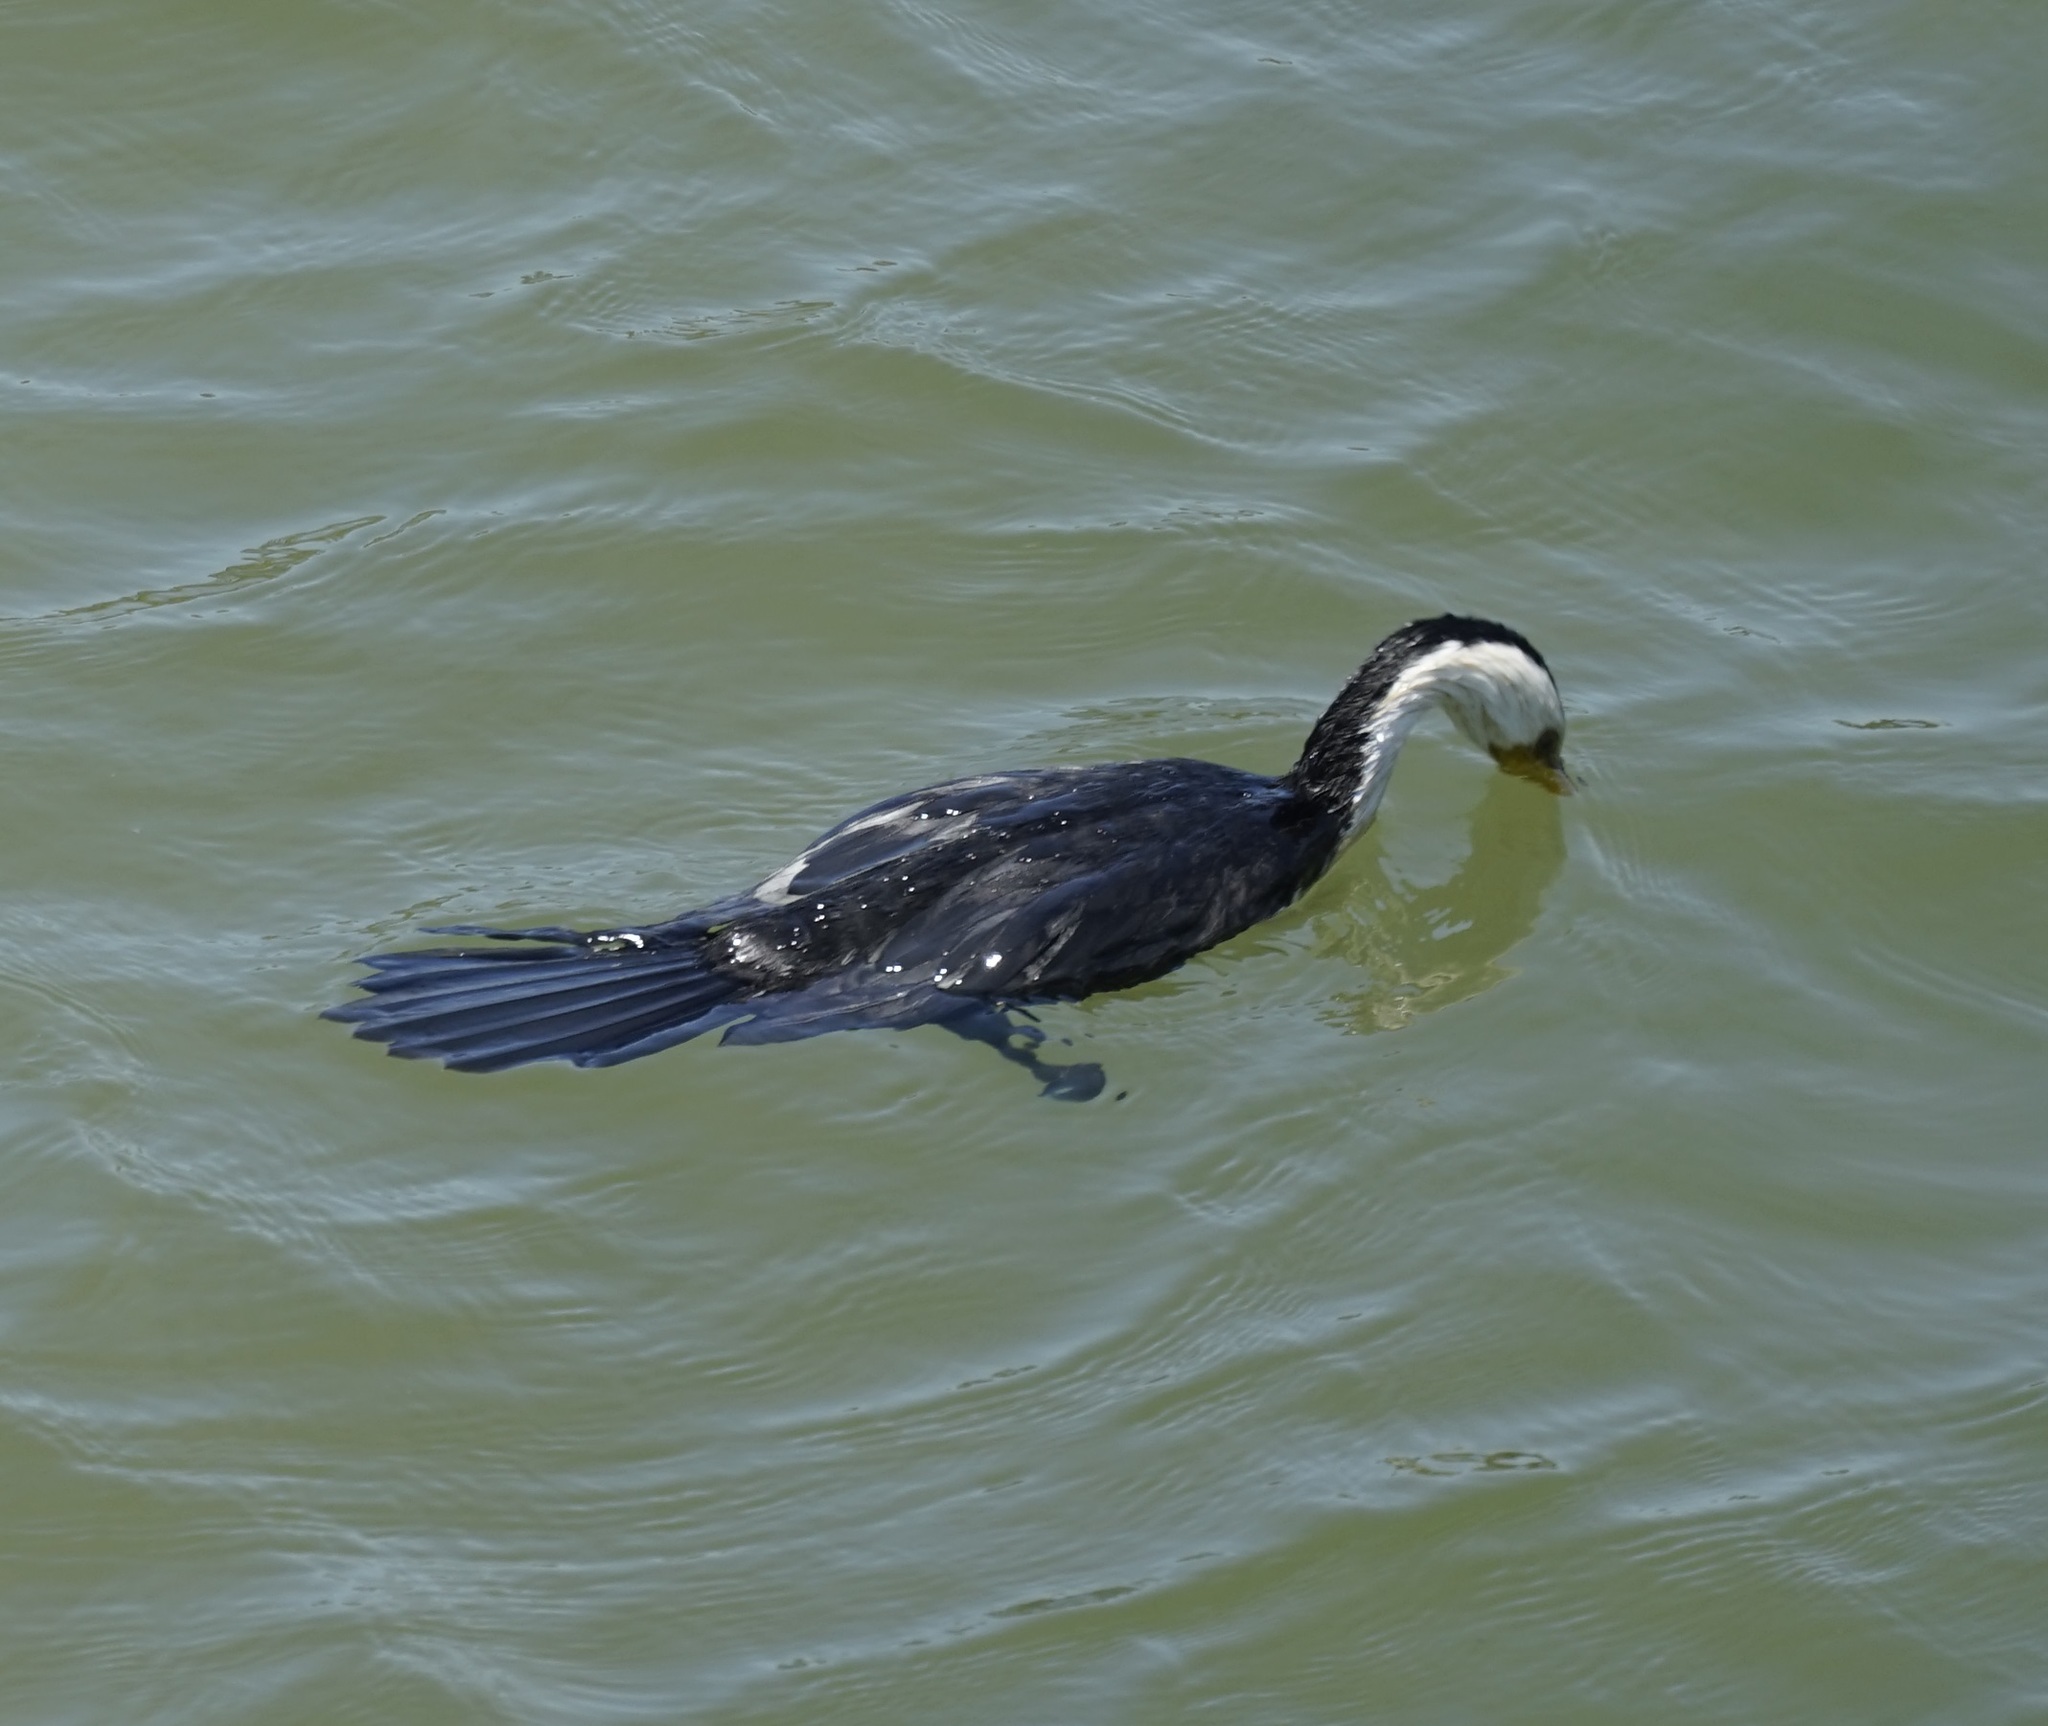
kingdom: Animalia
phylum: Chordata
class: Aves
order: Suliformes
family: Phalacrocoracidae
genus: Microcarbo
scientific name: Microcarbo melanoleucos
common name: Little pied cormorant
